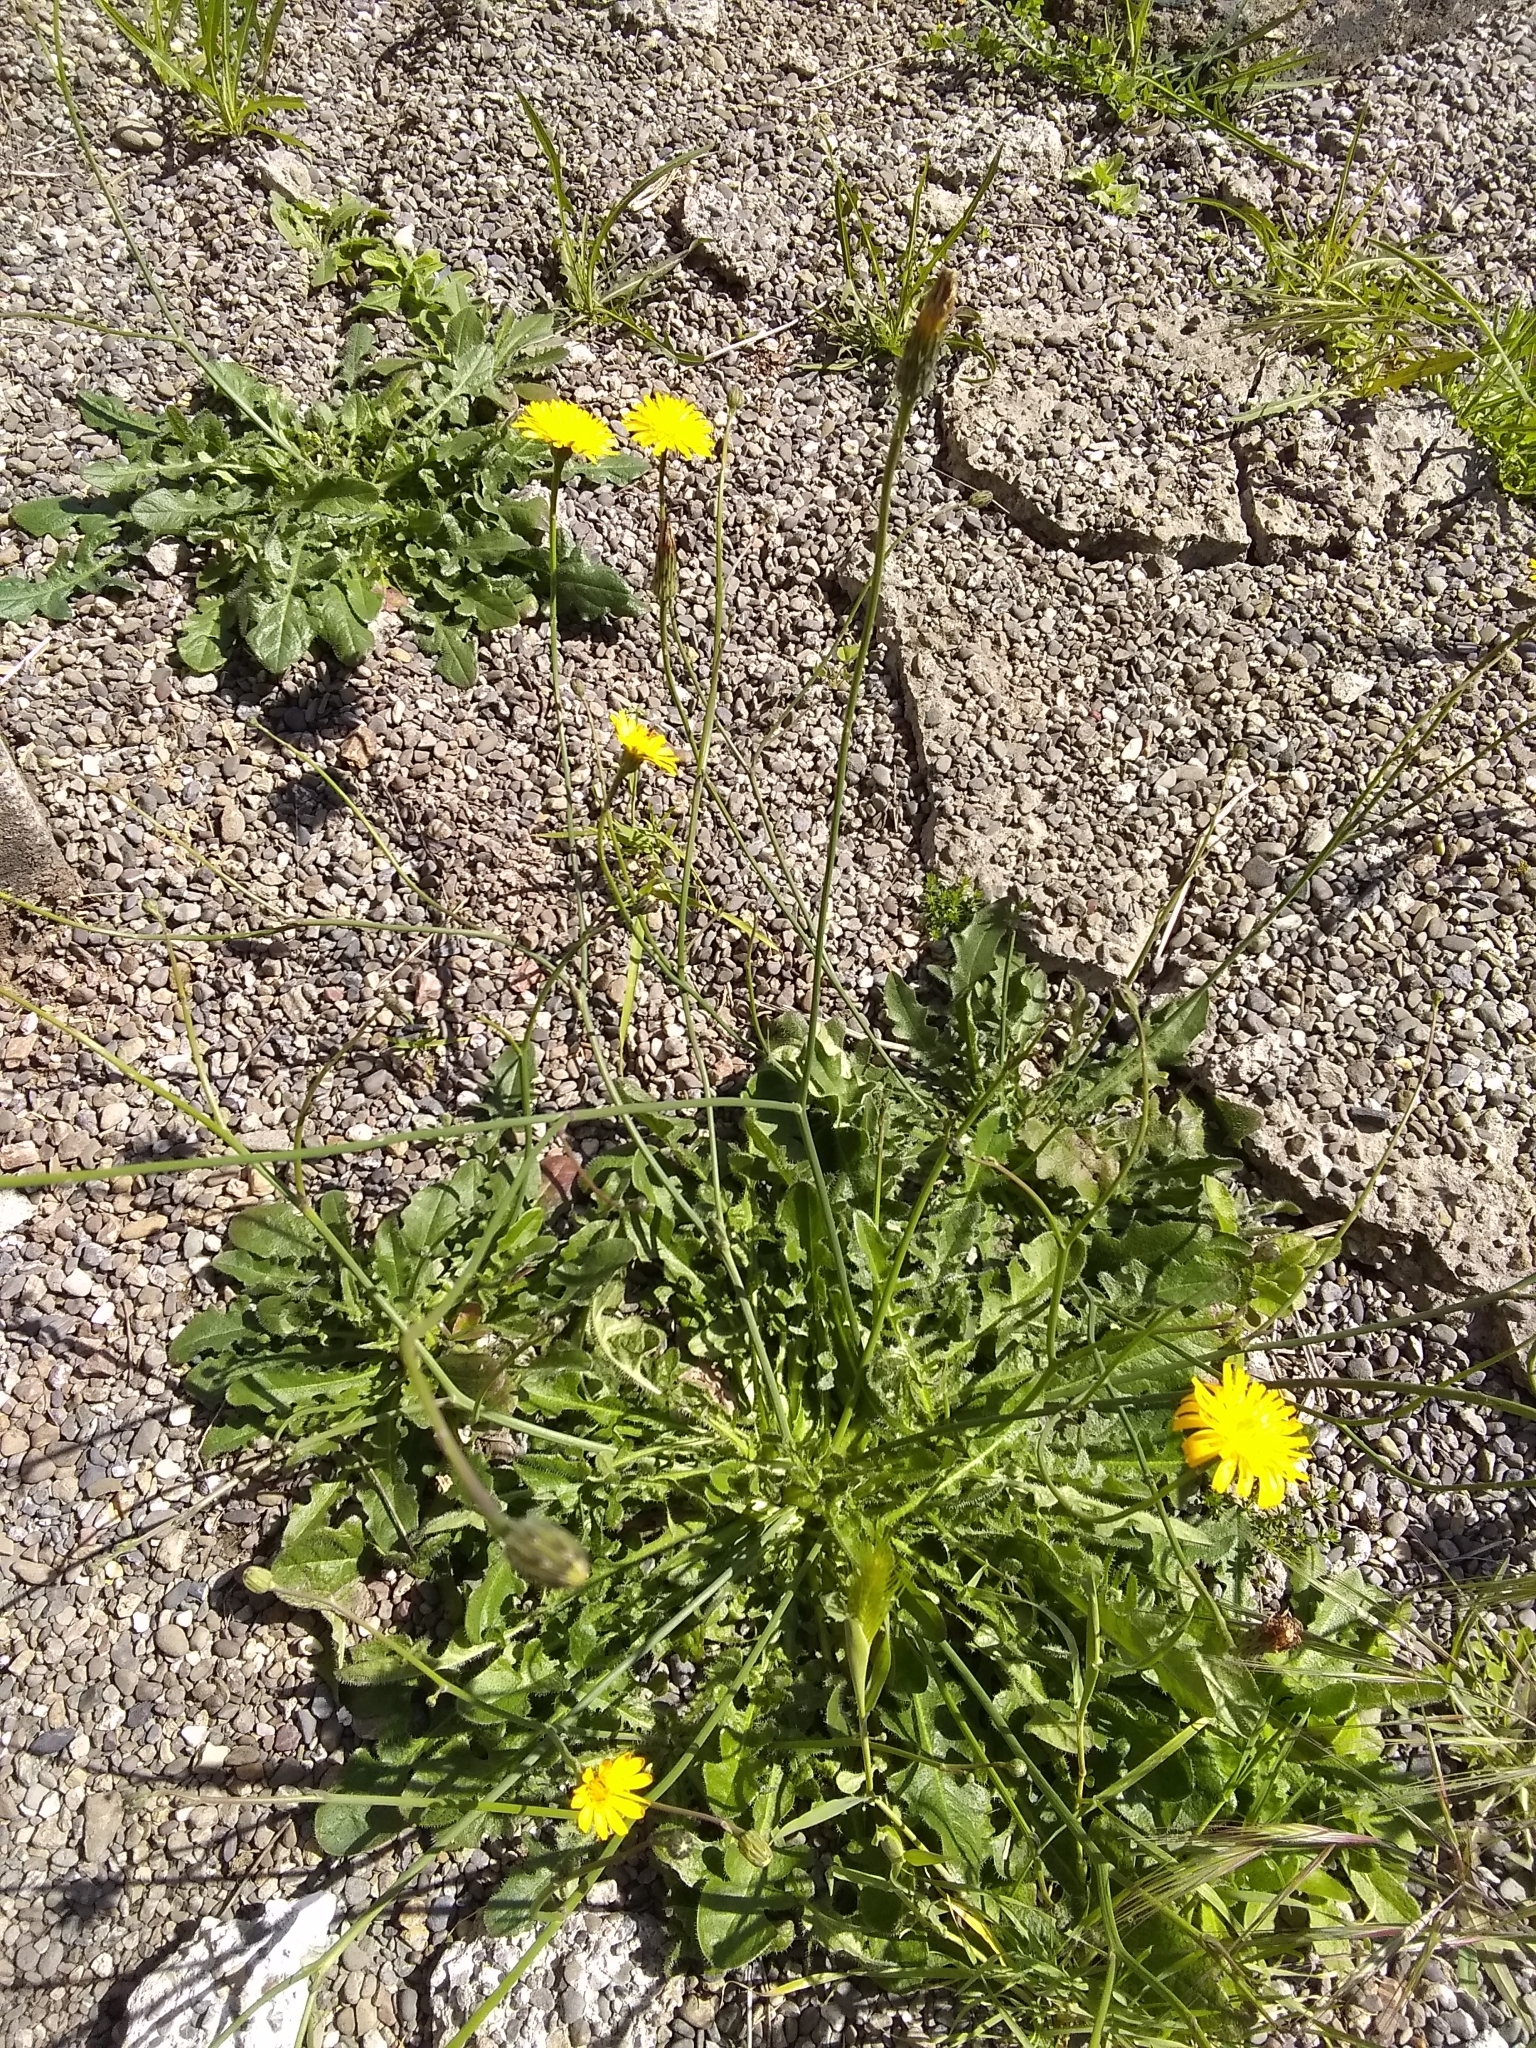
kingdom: Plantae
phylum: Tracheophyta
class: Magnoliopsida
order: Asterales
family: Asteraceae
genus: Hypochaeris
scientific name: Hypochaeris radicata
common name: Flatweed
